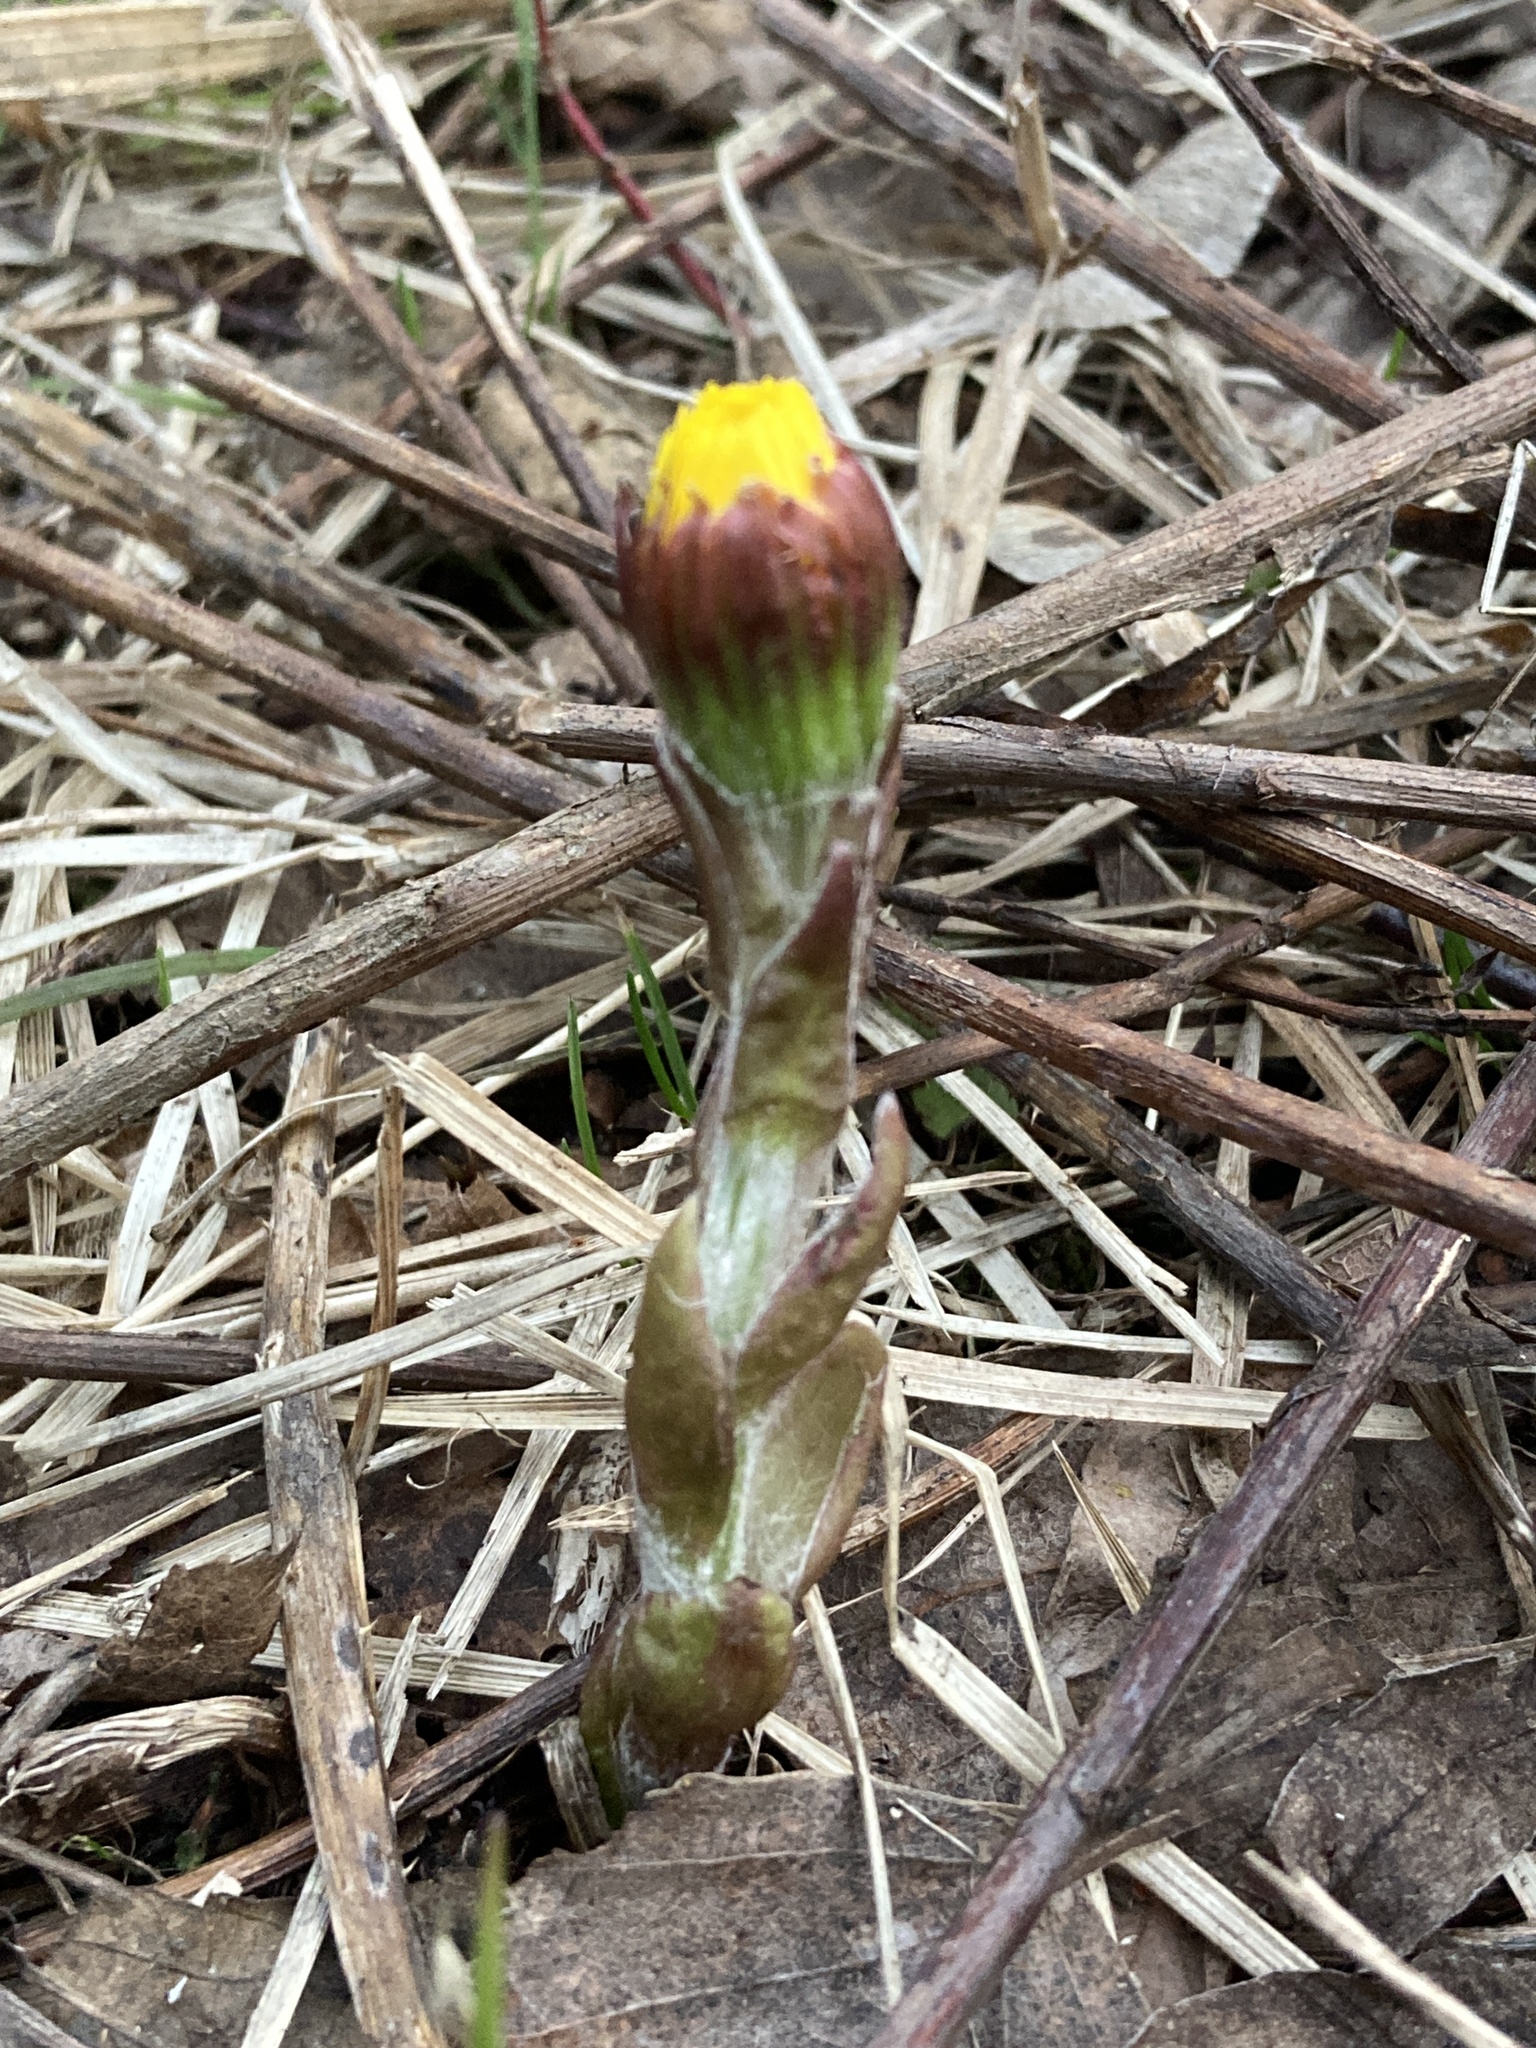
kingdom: Plantae
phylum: Tracheophyta
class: Magnoliopsida
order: Asterales
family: Asteraceae
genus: Tussilago
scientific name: Tussilago farfara
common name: Coltsfoot
